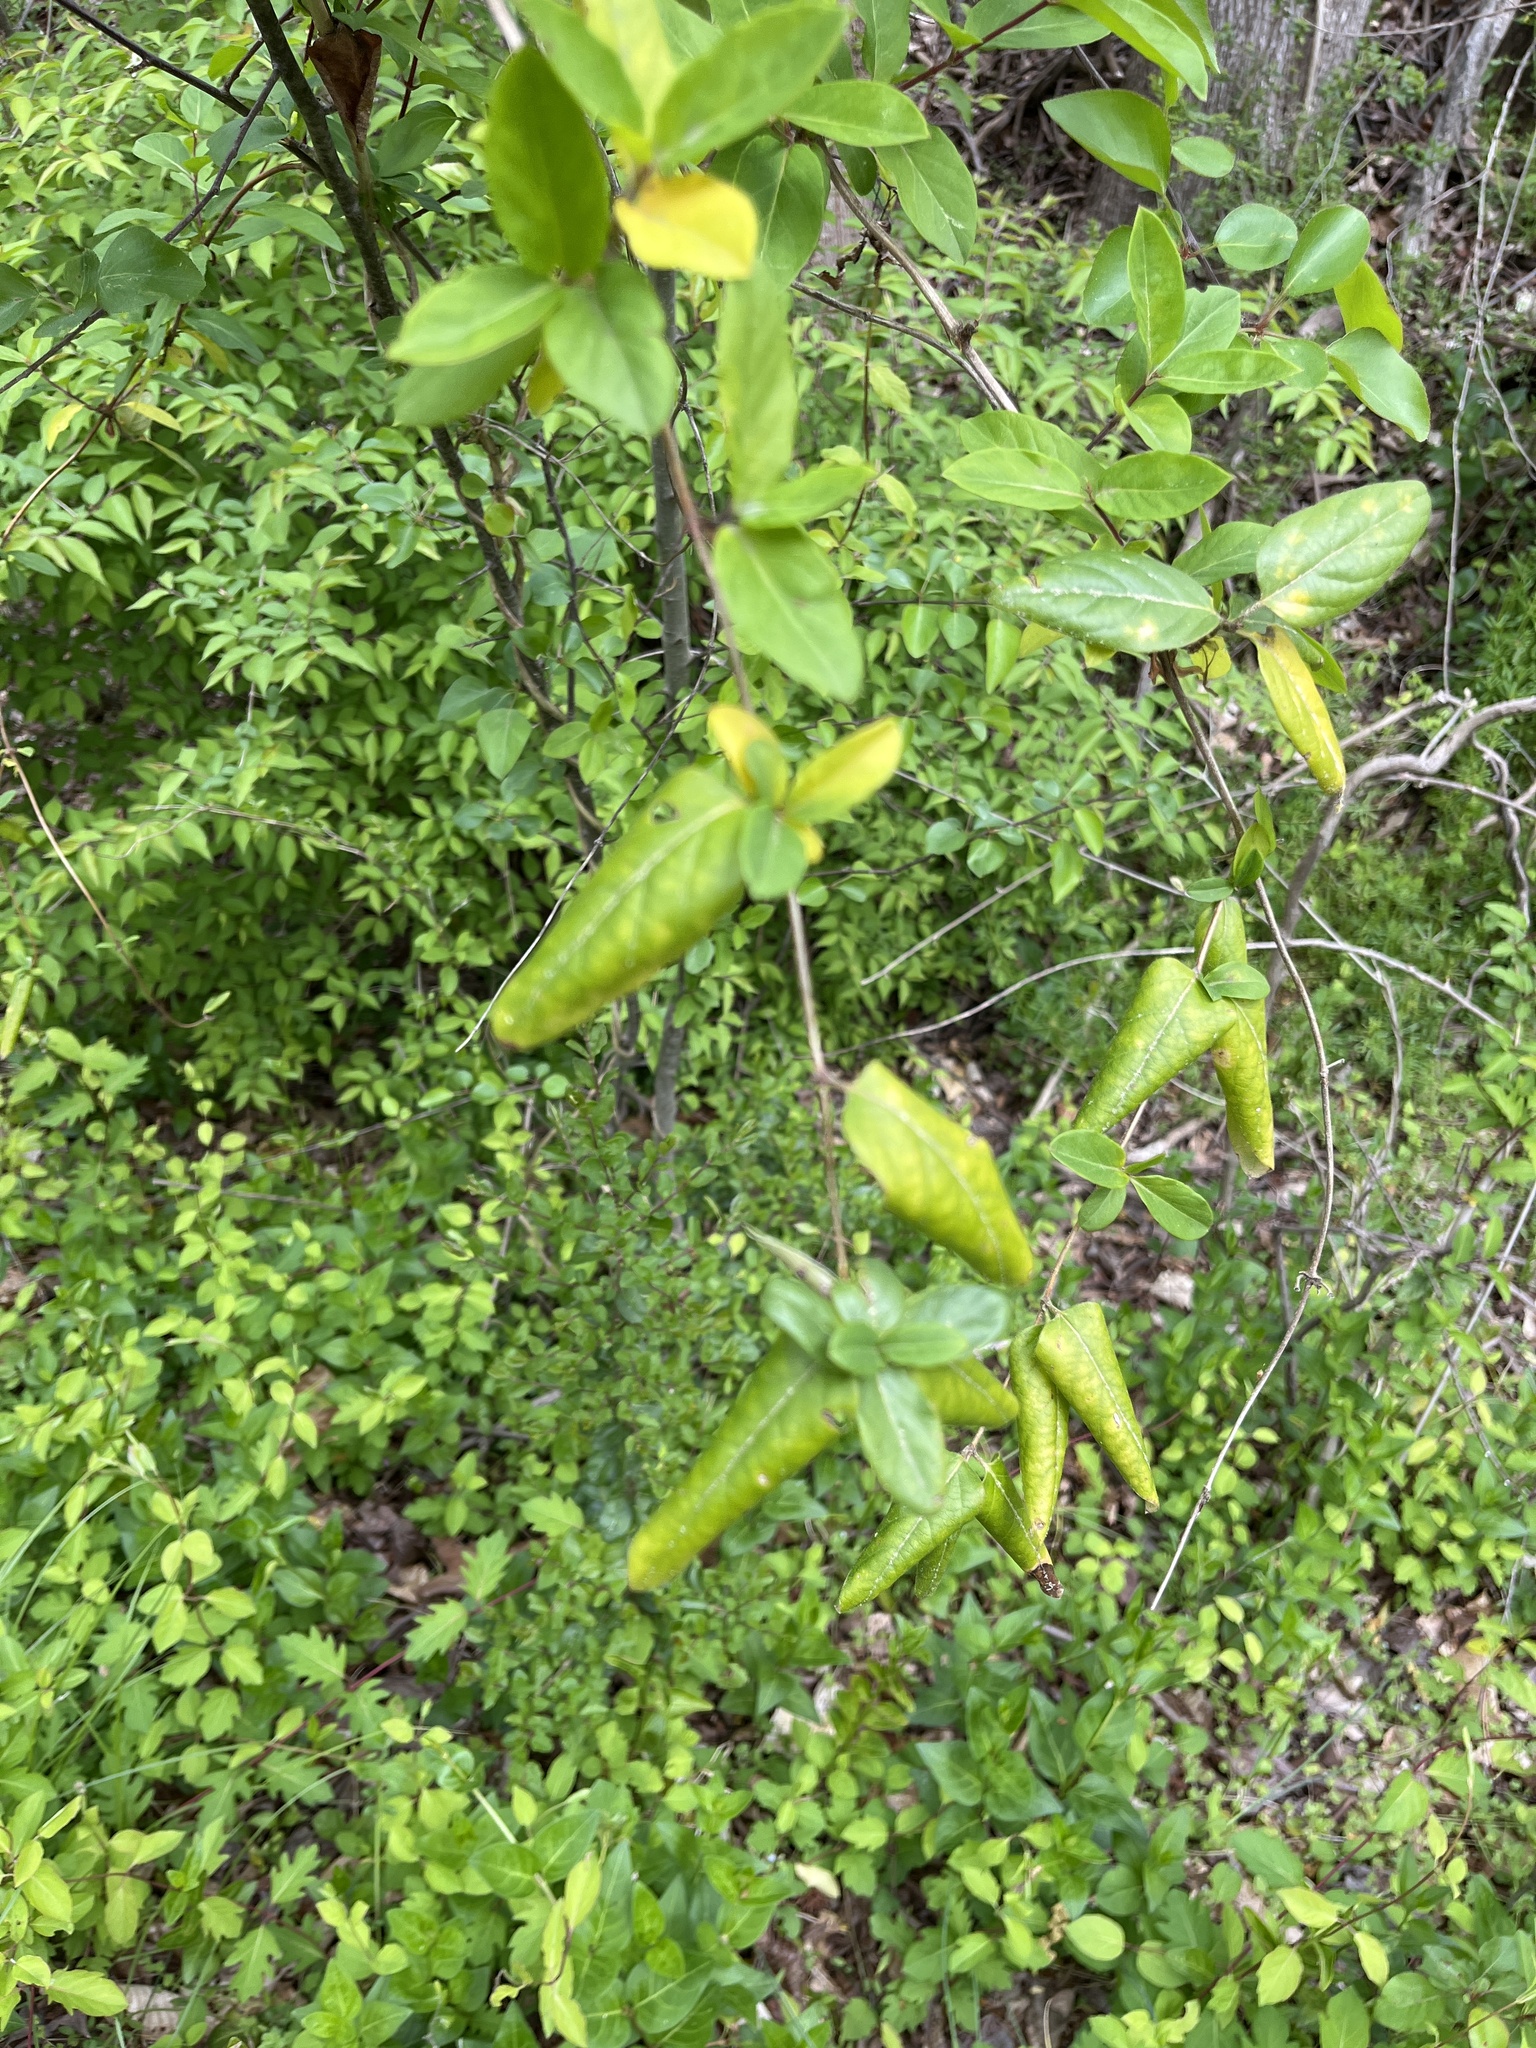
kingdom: Plantae
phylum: Tracheophyta
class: Magnoliopsida
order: Dipsacales
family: Caprifoliaceae
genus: Lonicera
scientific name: Lonicera japonica
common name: Japanese honeysuckle
